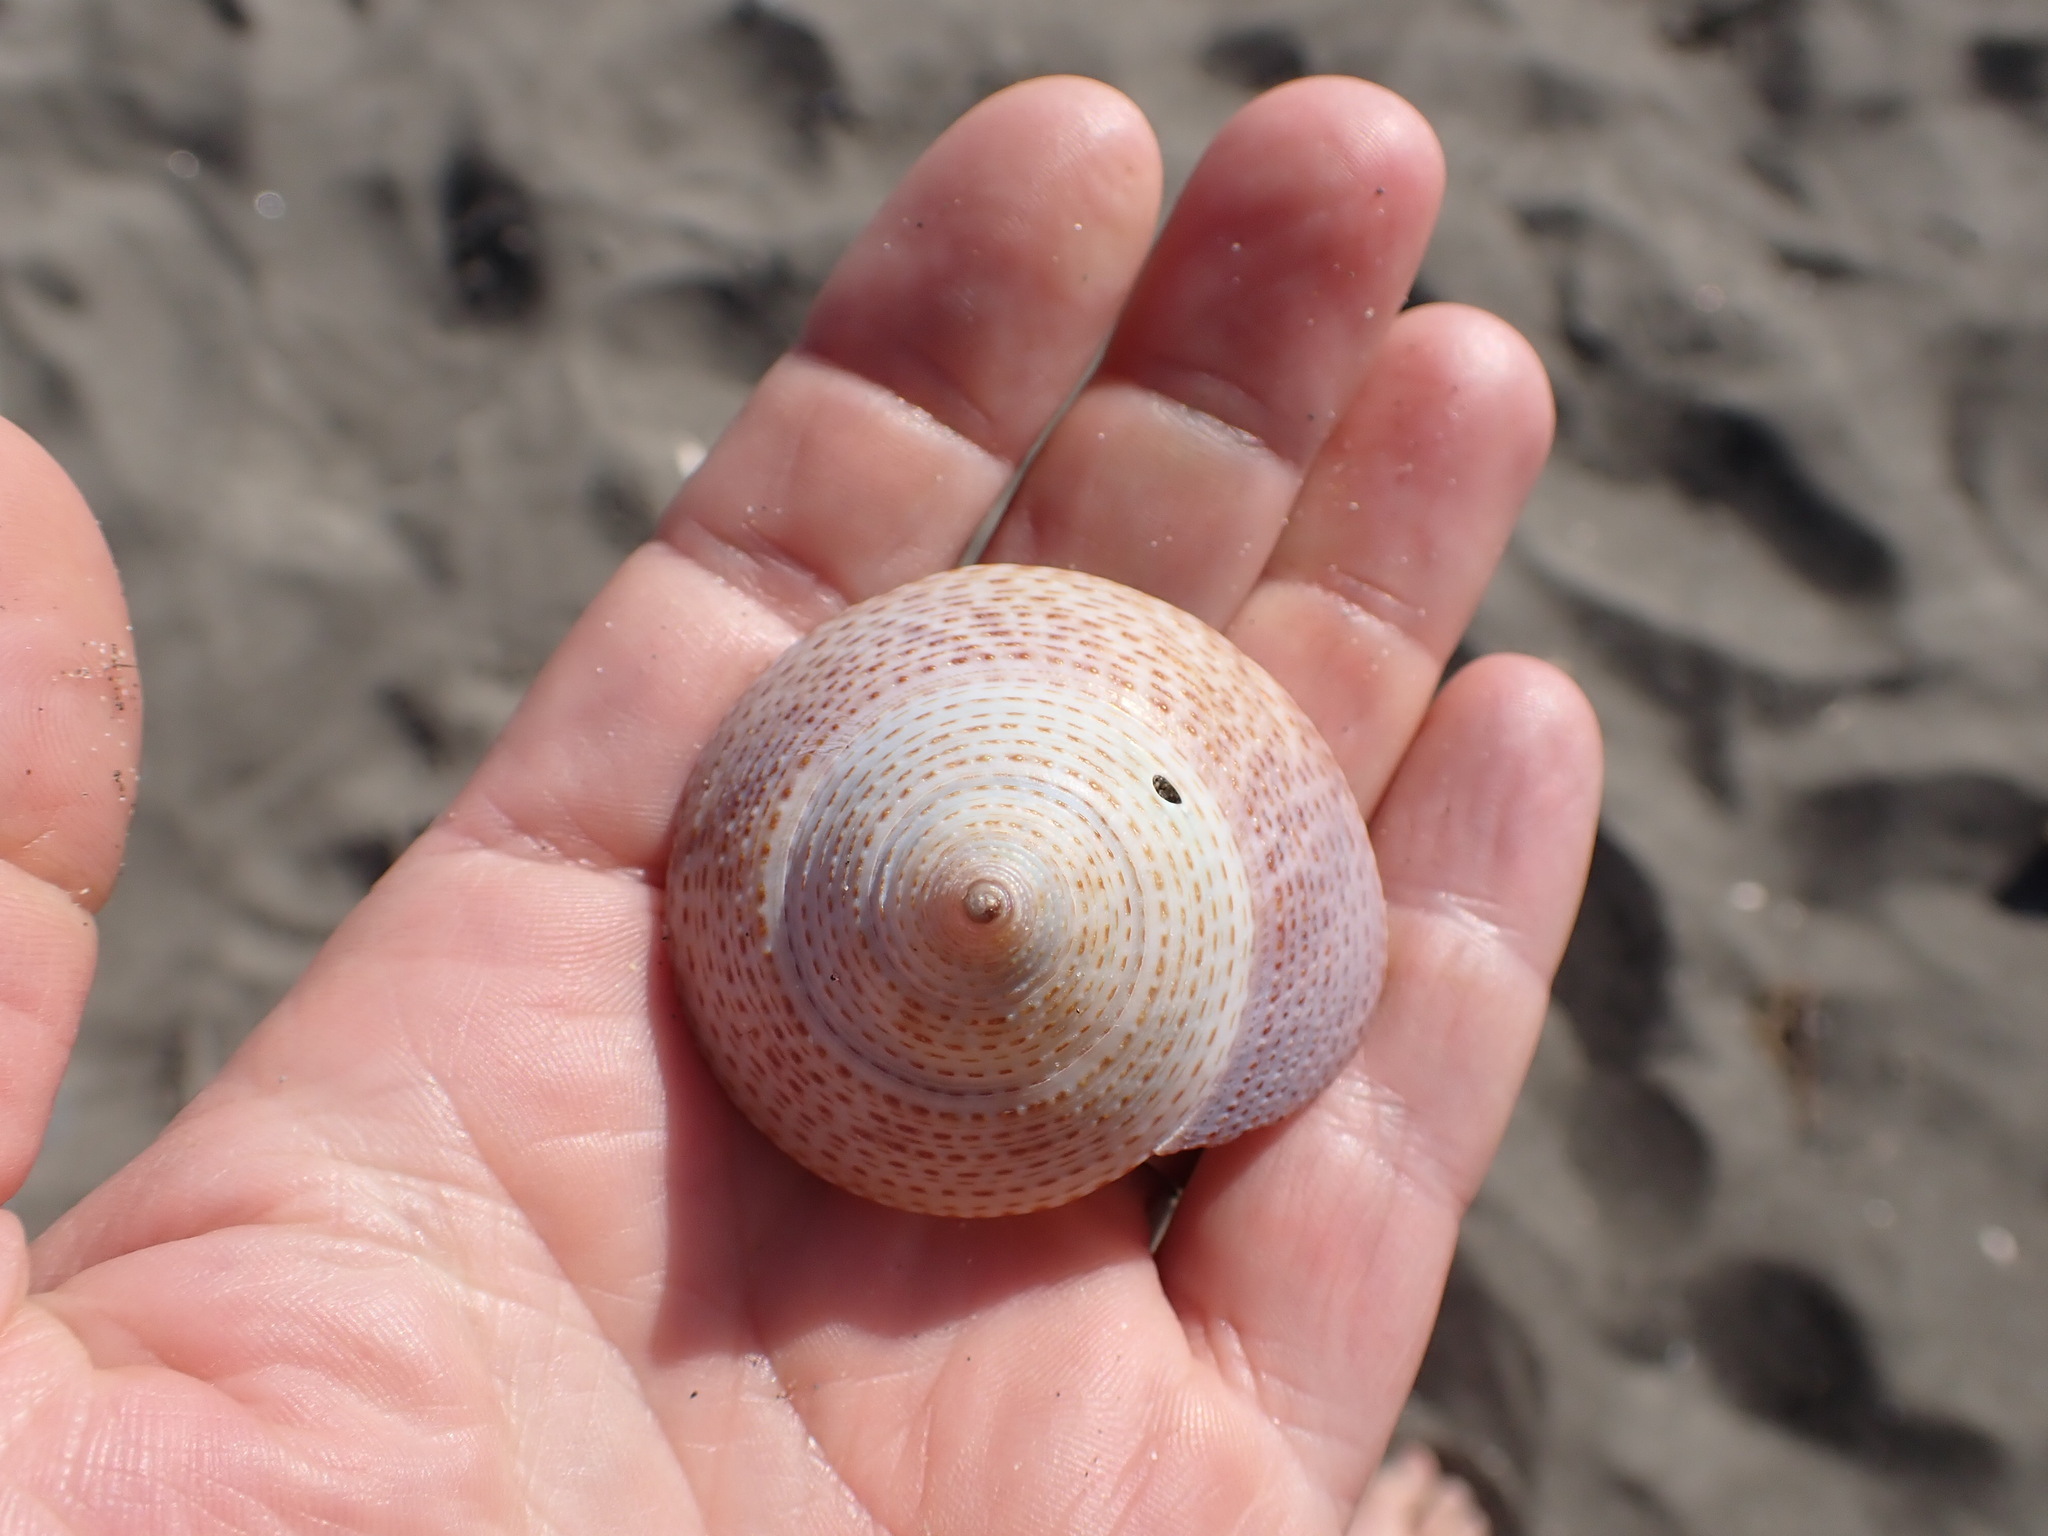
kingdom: Animalia
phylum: Mollusca
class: Gastropoda
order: Trochida
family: Calliostomatidae
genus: Maurea
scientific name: Maurea selecta
